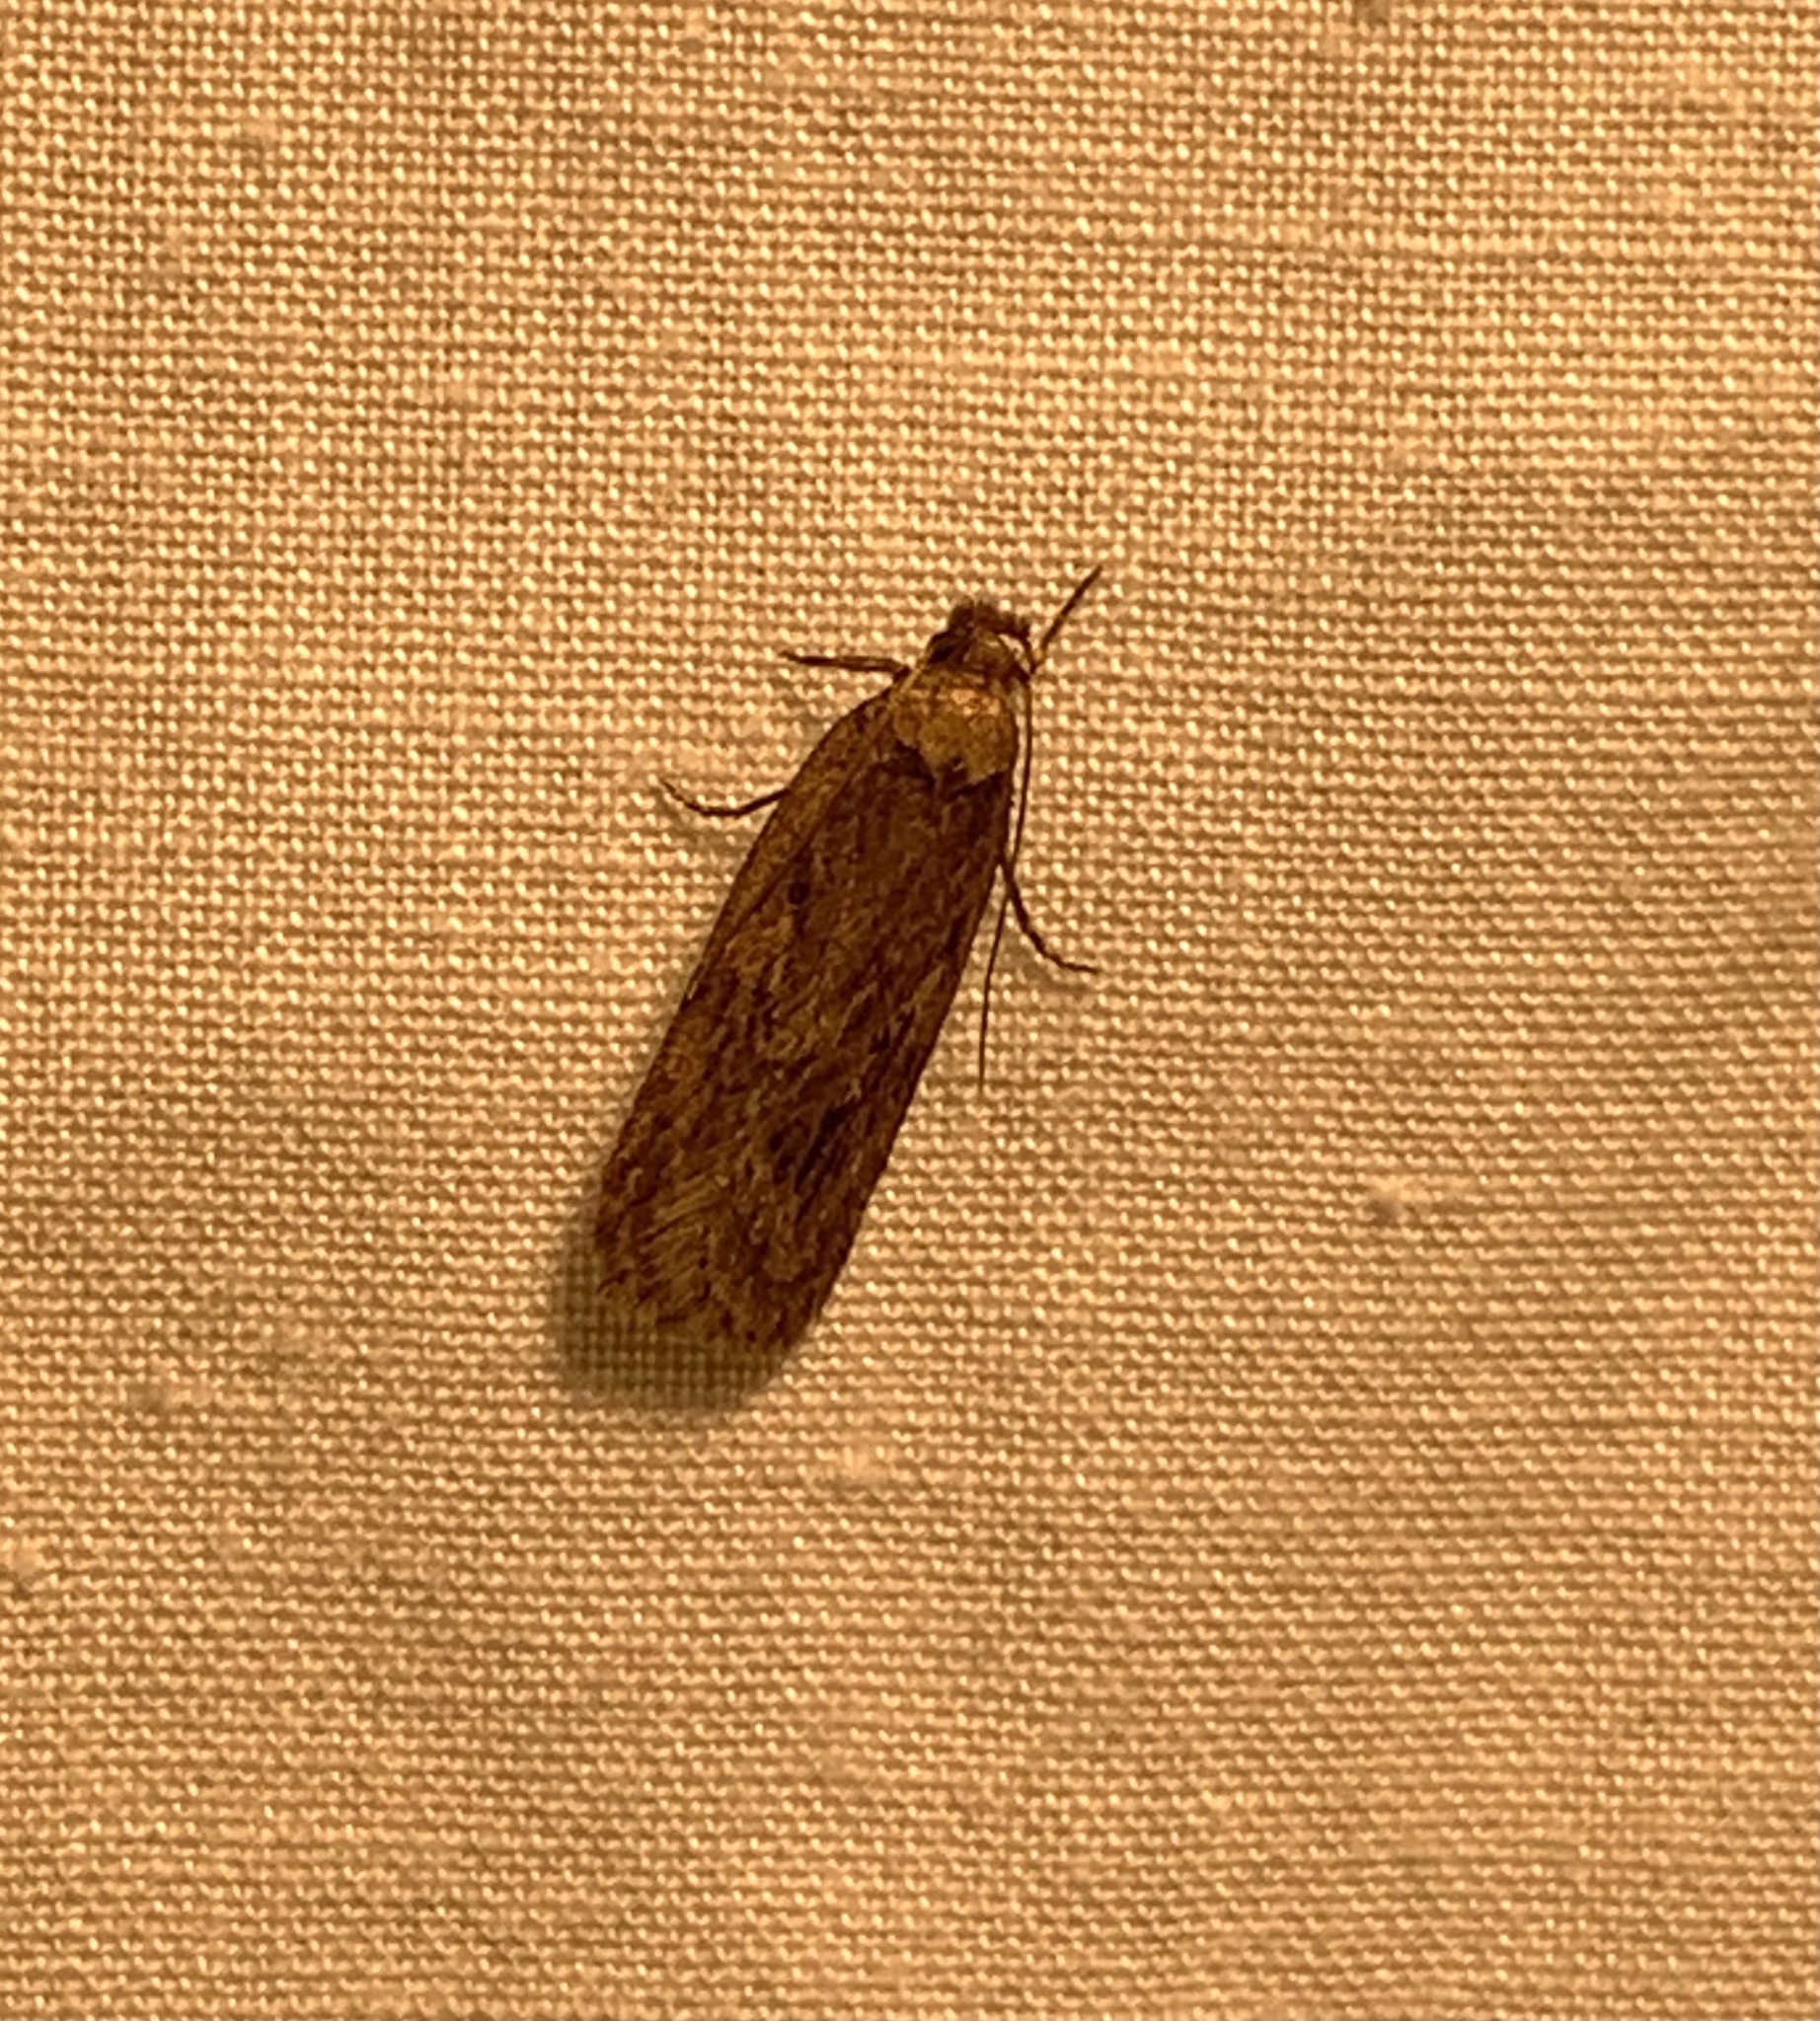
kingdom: Animalia
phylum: Arthropoda
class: Insecta
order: Lepidoptera
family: Depressariidae
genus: Depressaria
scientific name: Depressaria radiella
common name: Parsnip moth
